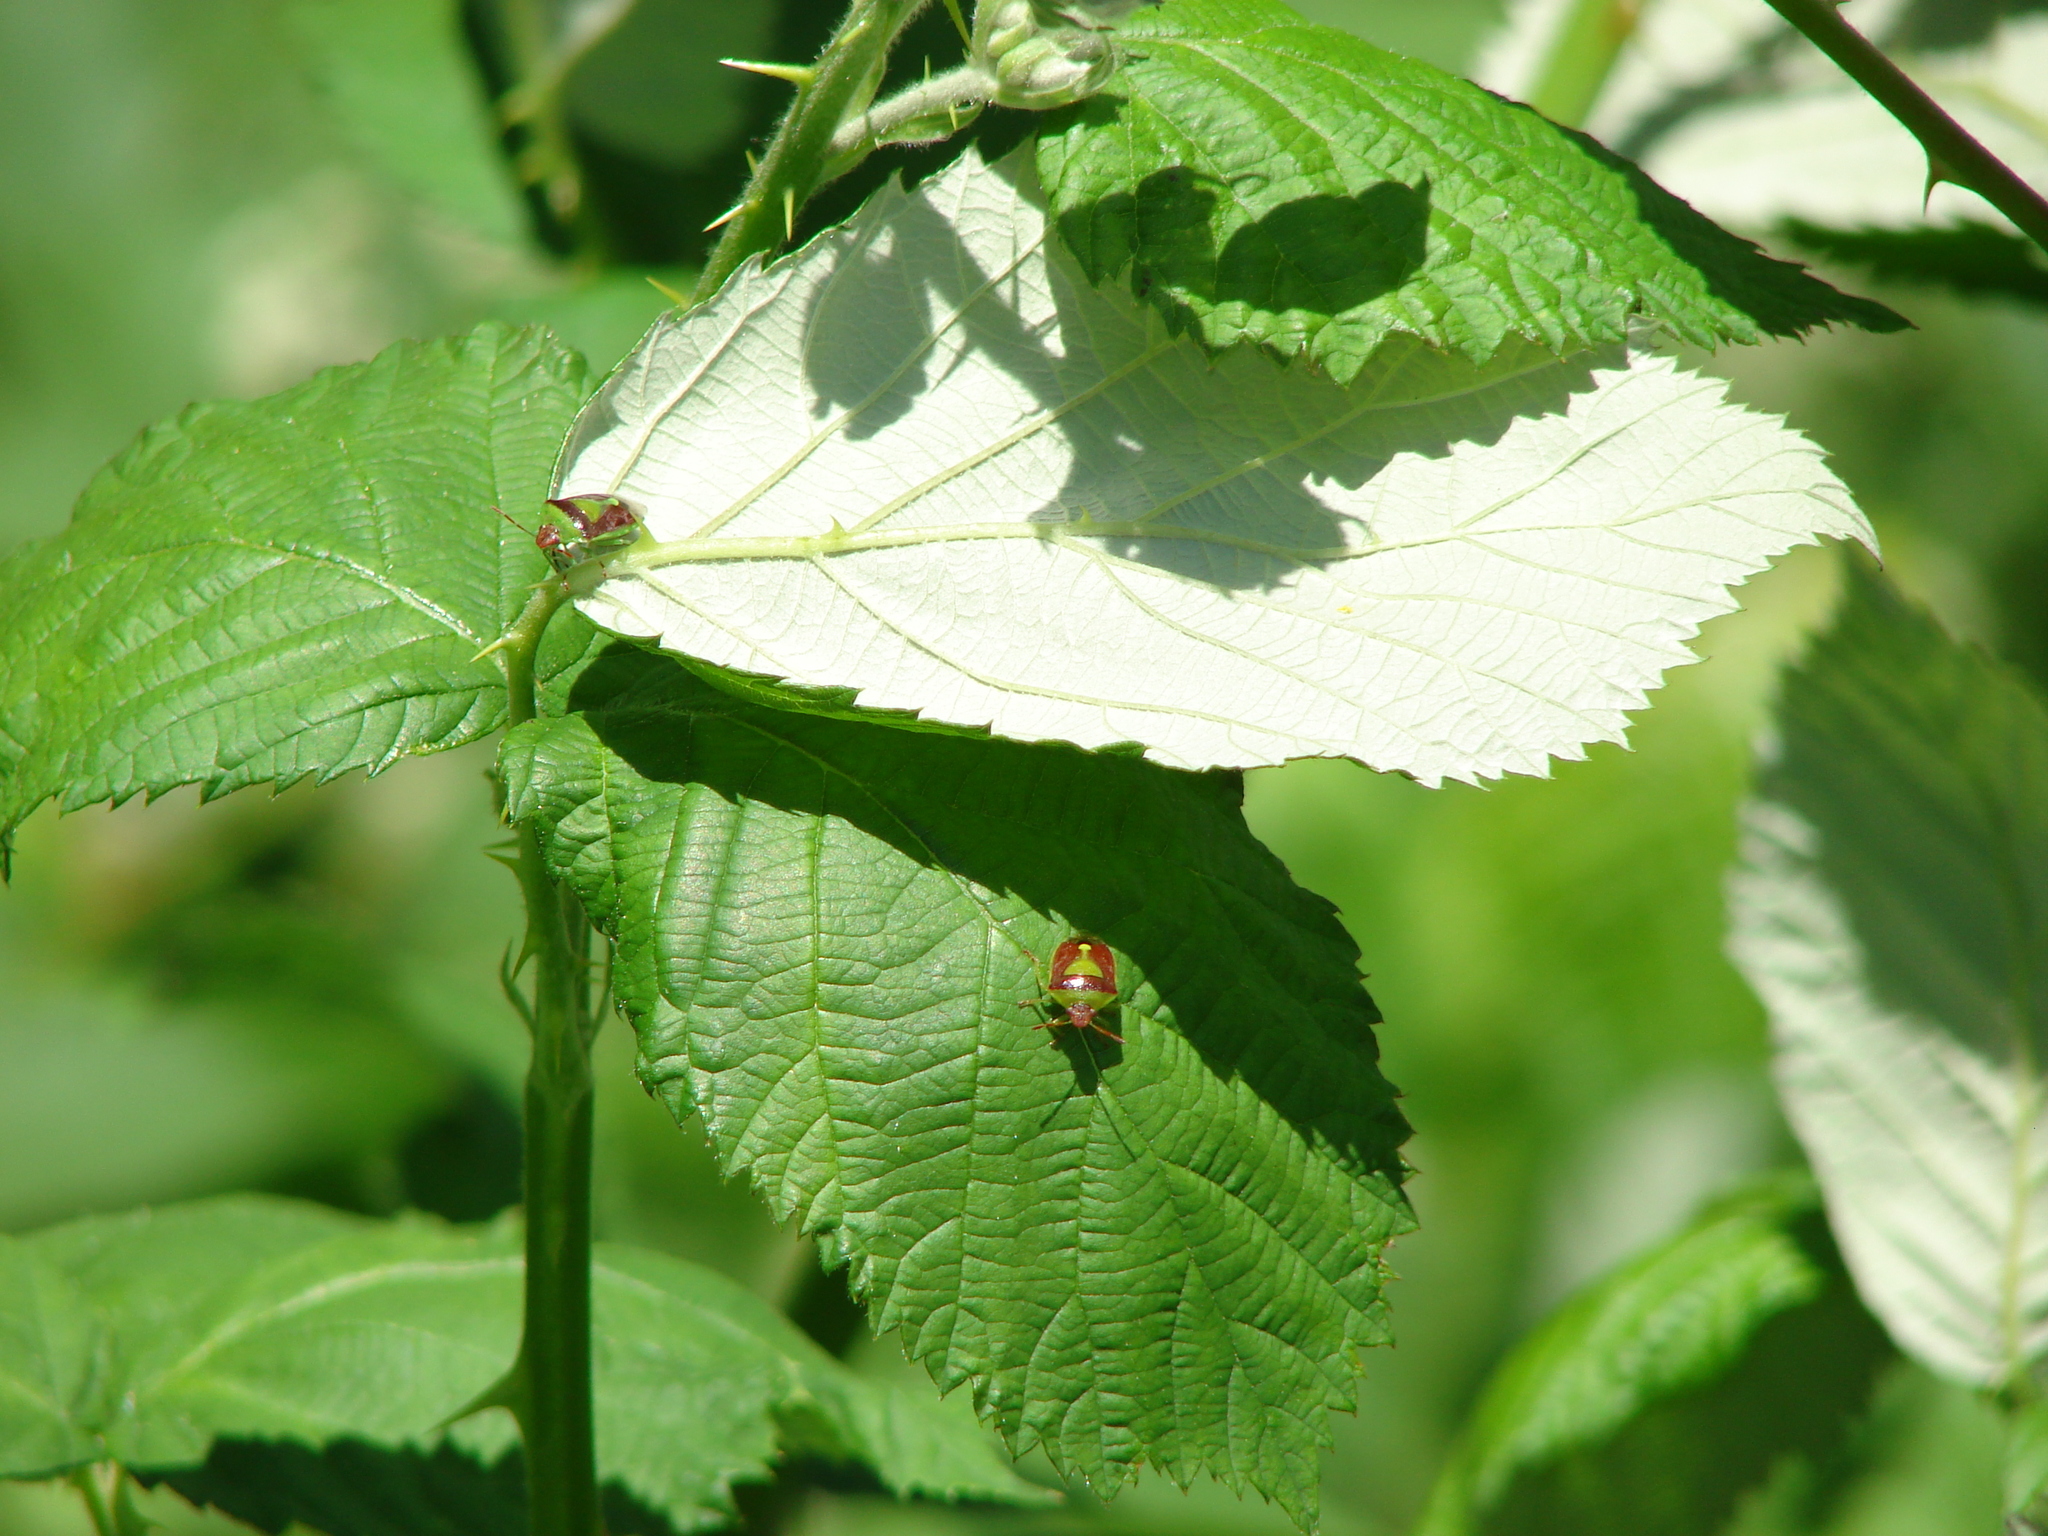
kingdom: Animalia
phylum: Arthropoda
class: Insecta
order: Hemiptera
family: Pentatomidae
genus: Banasa
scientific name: Banasa dimidiata
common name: Green burgundy stink bug
